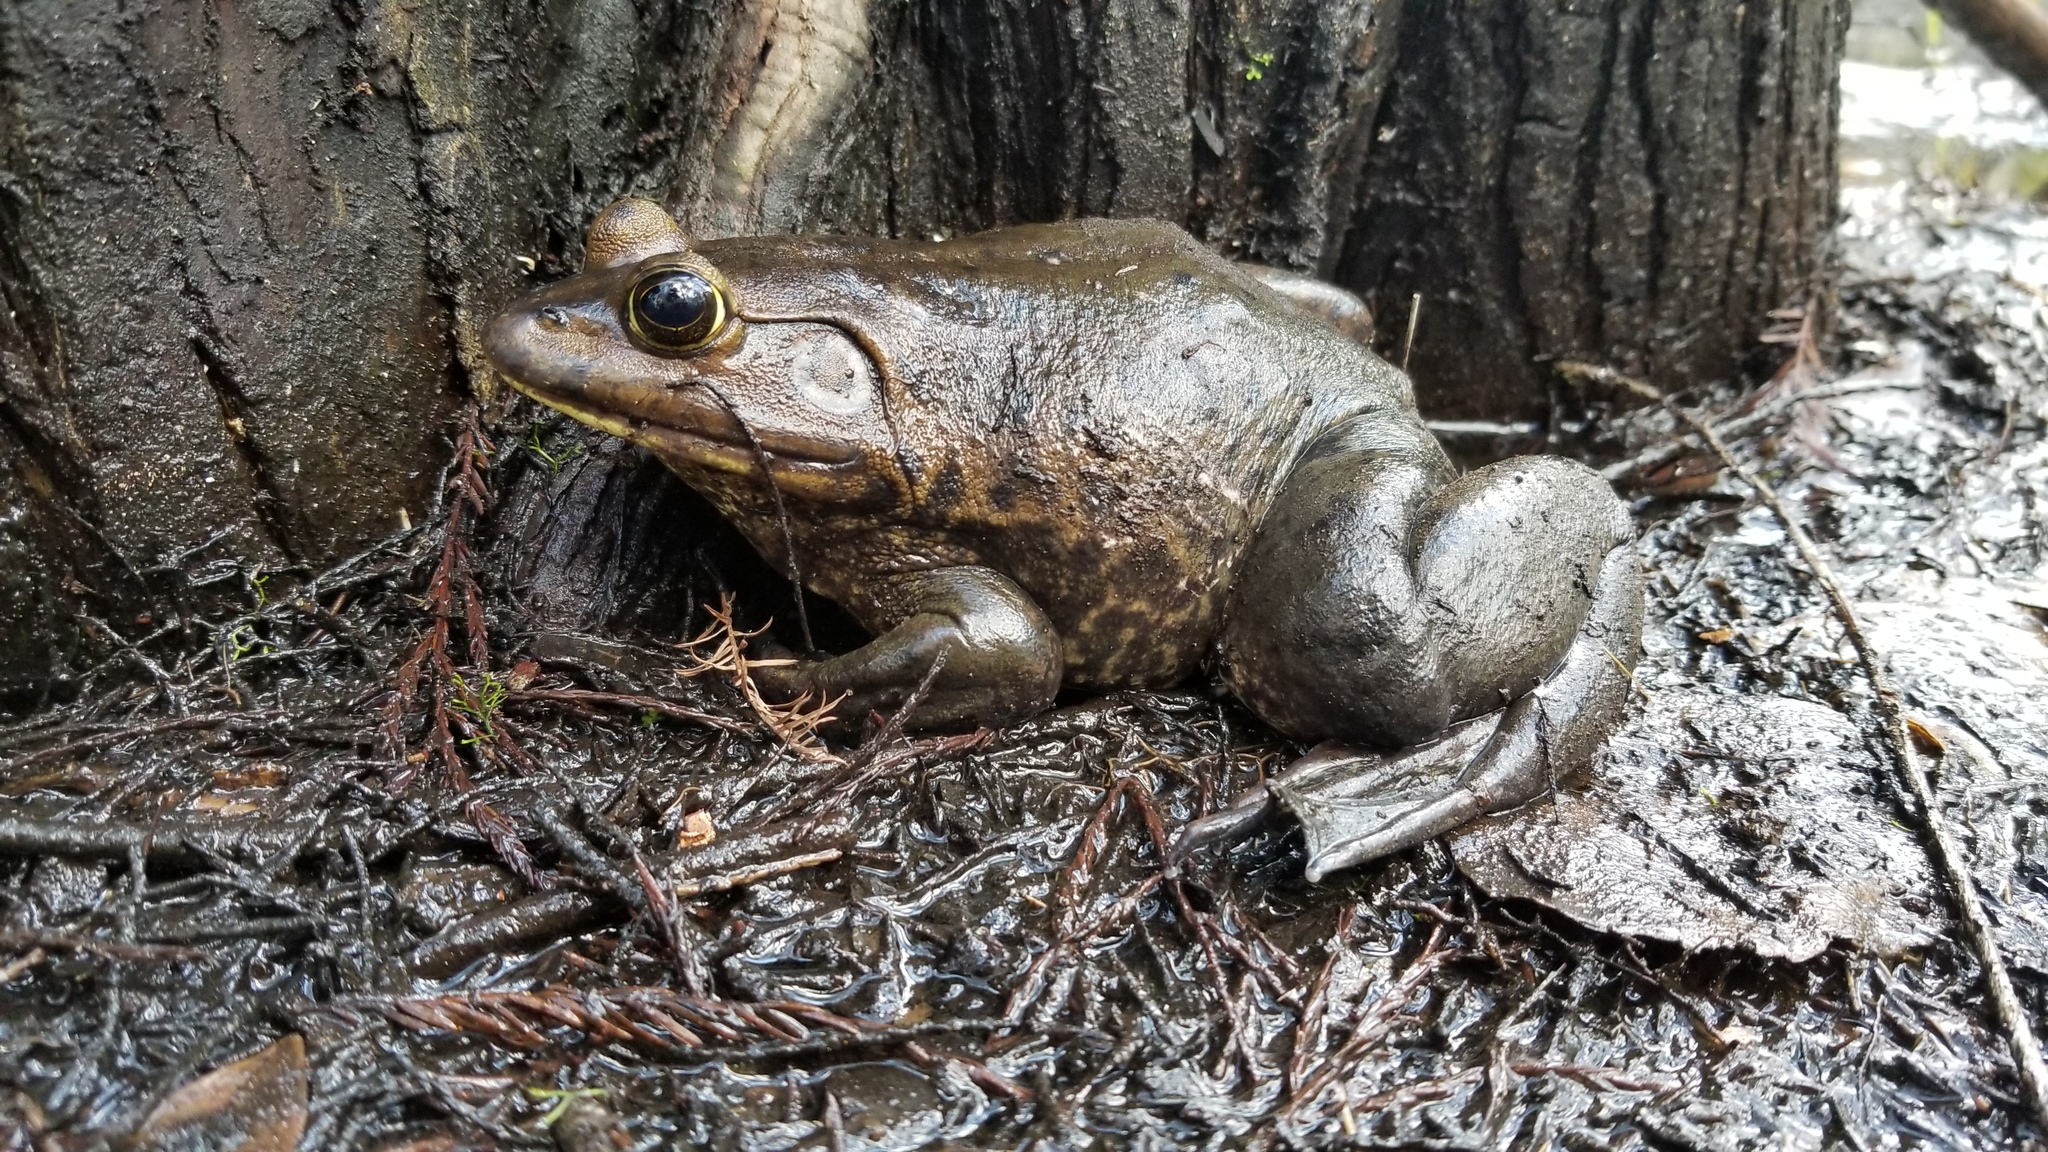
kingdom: Animalia
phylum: Chordata
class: Amphibia
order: Anura
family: Ranidae
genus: Lithobates
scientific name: Lithobates grylio
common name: Pig frog
